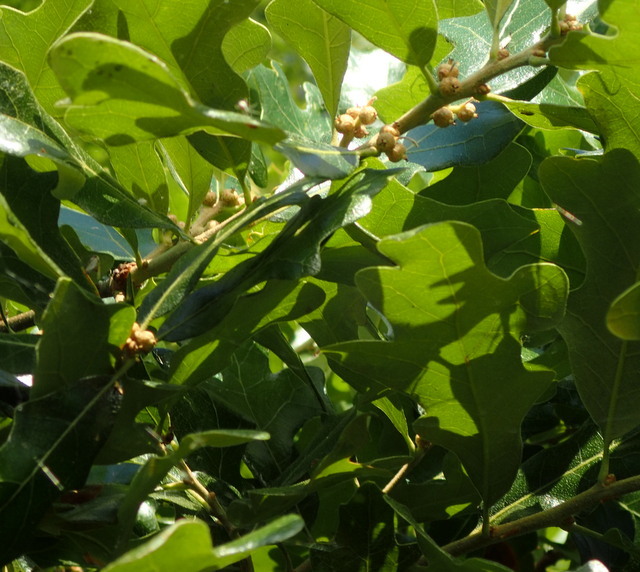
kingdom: Plantae
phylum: Tracheophyta
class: Magnoliopsida
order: Fagales
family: Fagaceae
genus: Quercus
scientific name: Quercus stellata
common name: Post oak
